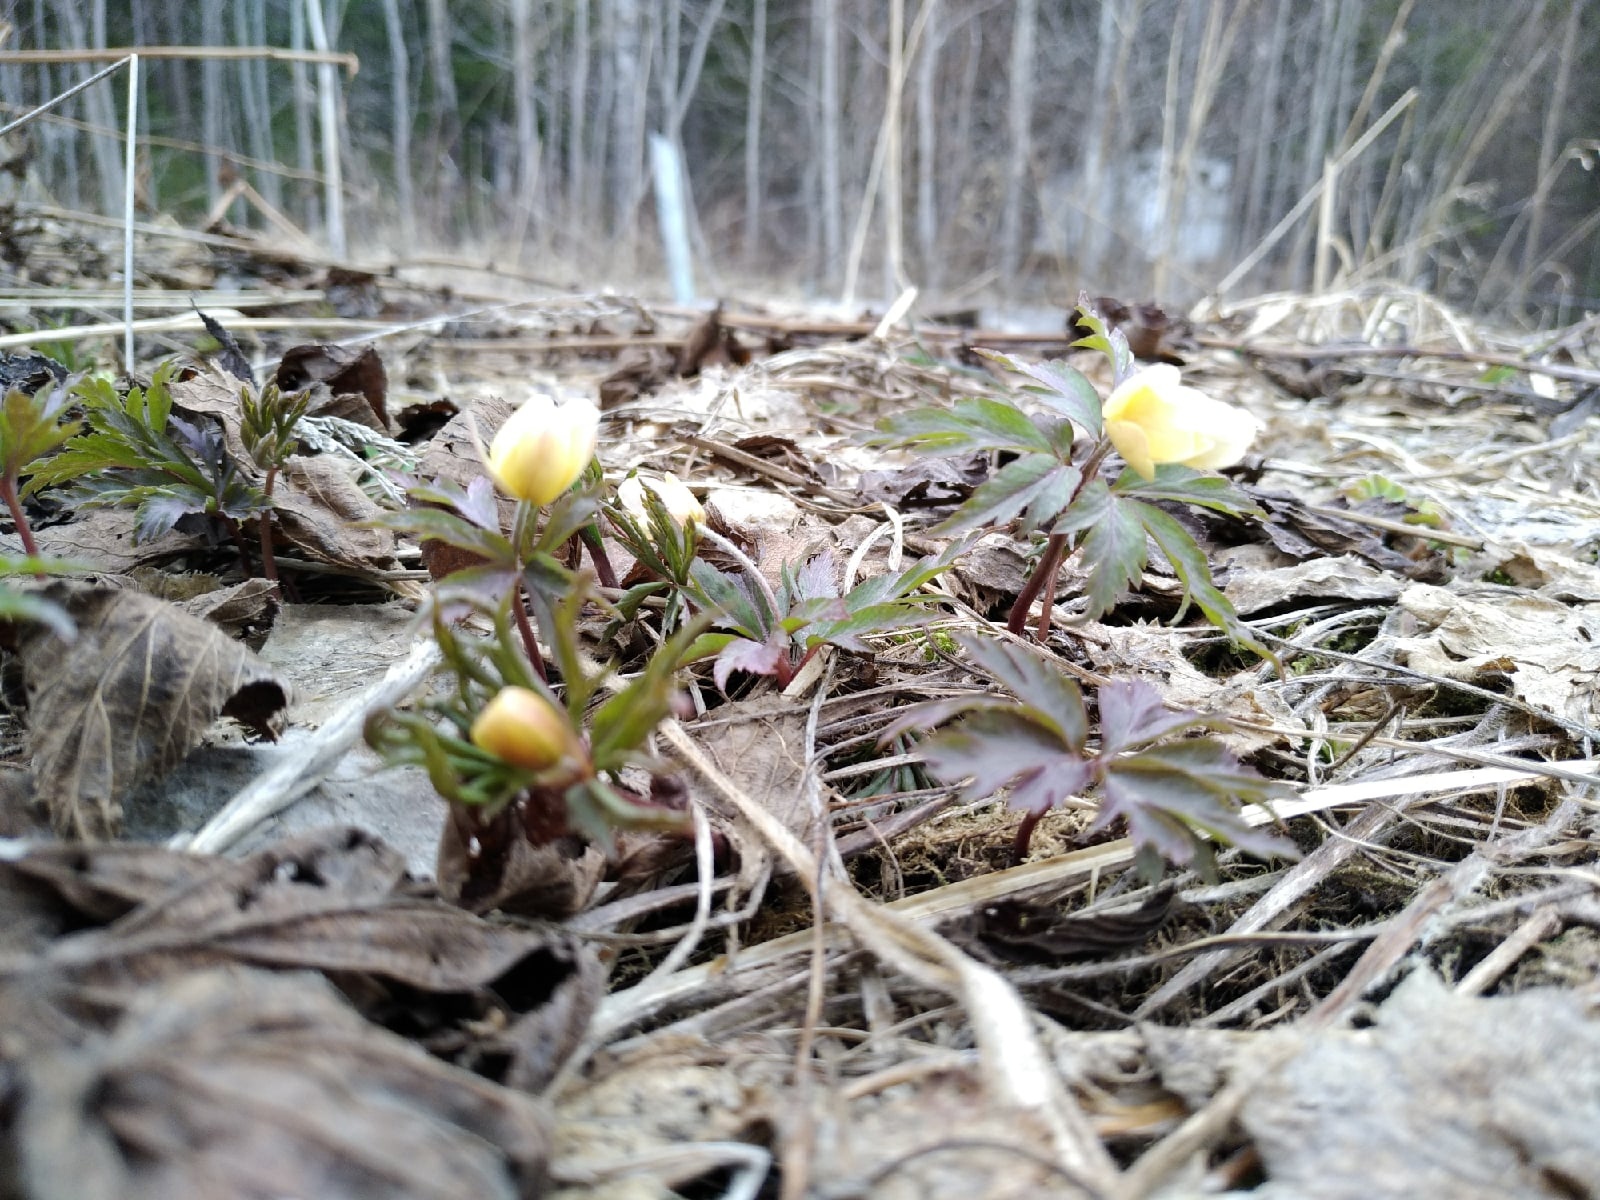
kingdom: Plantae
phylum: Tracheophyta
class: Magnoliopsida
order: Ranunculales
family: Ranunculaceae
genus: Anemone
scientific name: Anemone ranunculoides
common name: Yellow anemone
